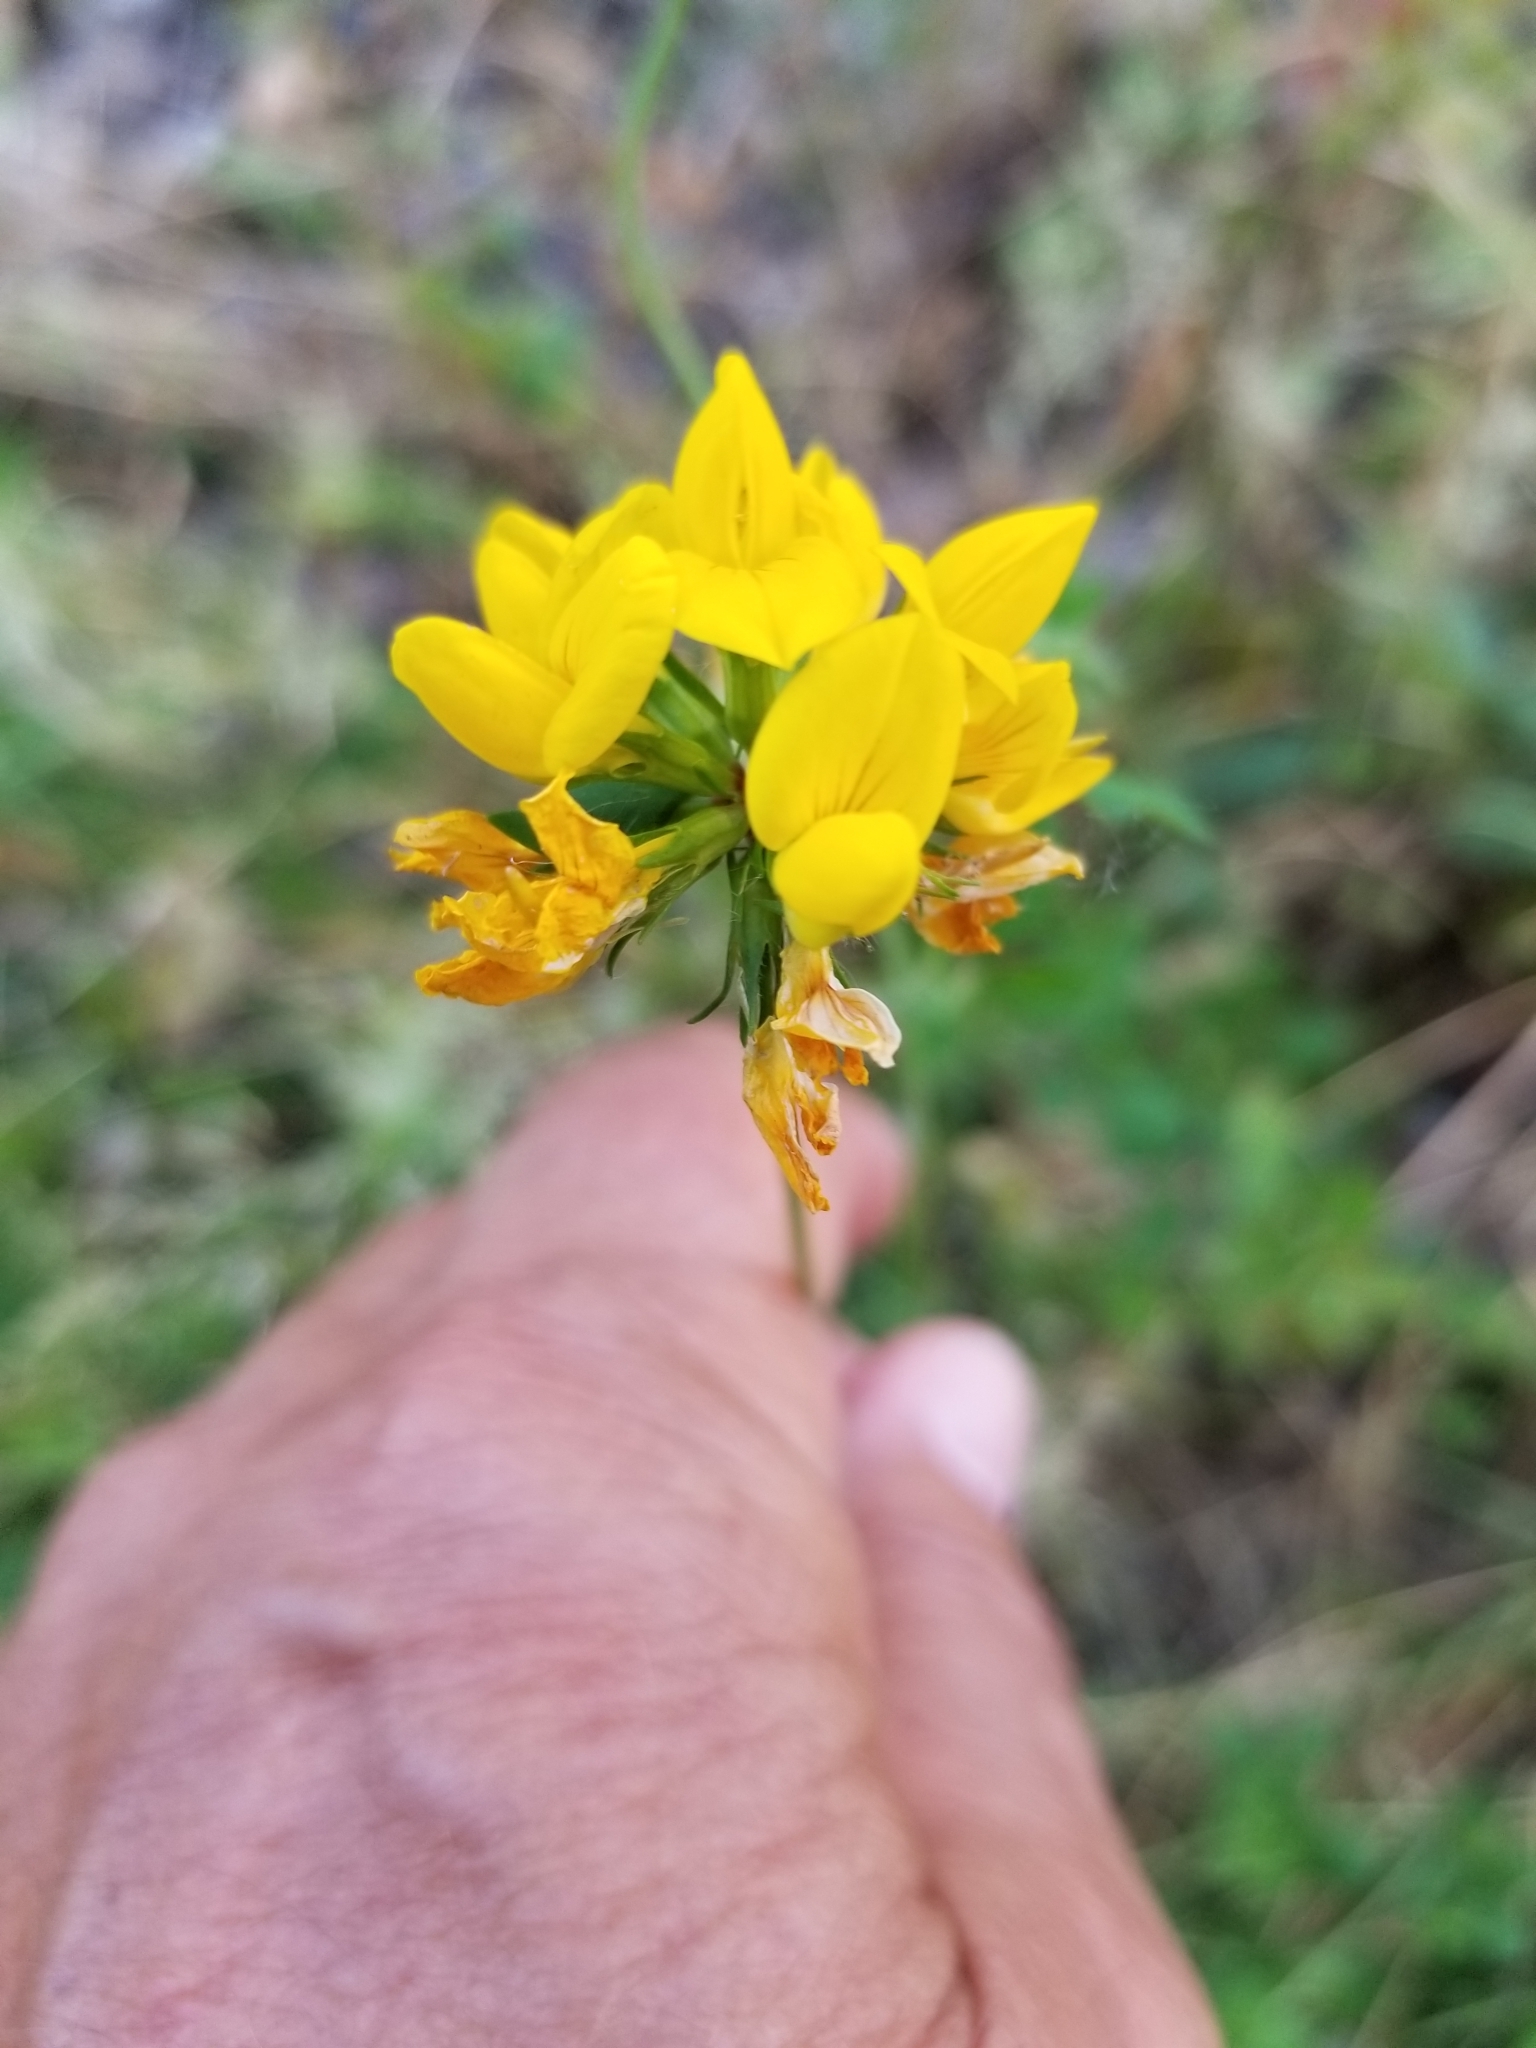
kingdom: Plantae
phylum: Tracheophyta
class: Magnoliopsida
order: Fabales
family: Fabaceae
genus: Lotus
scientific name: Lotus pedunculatus
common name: Greater birdsfoot-trefoil
